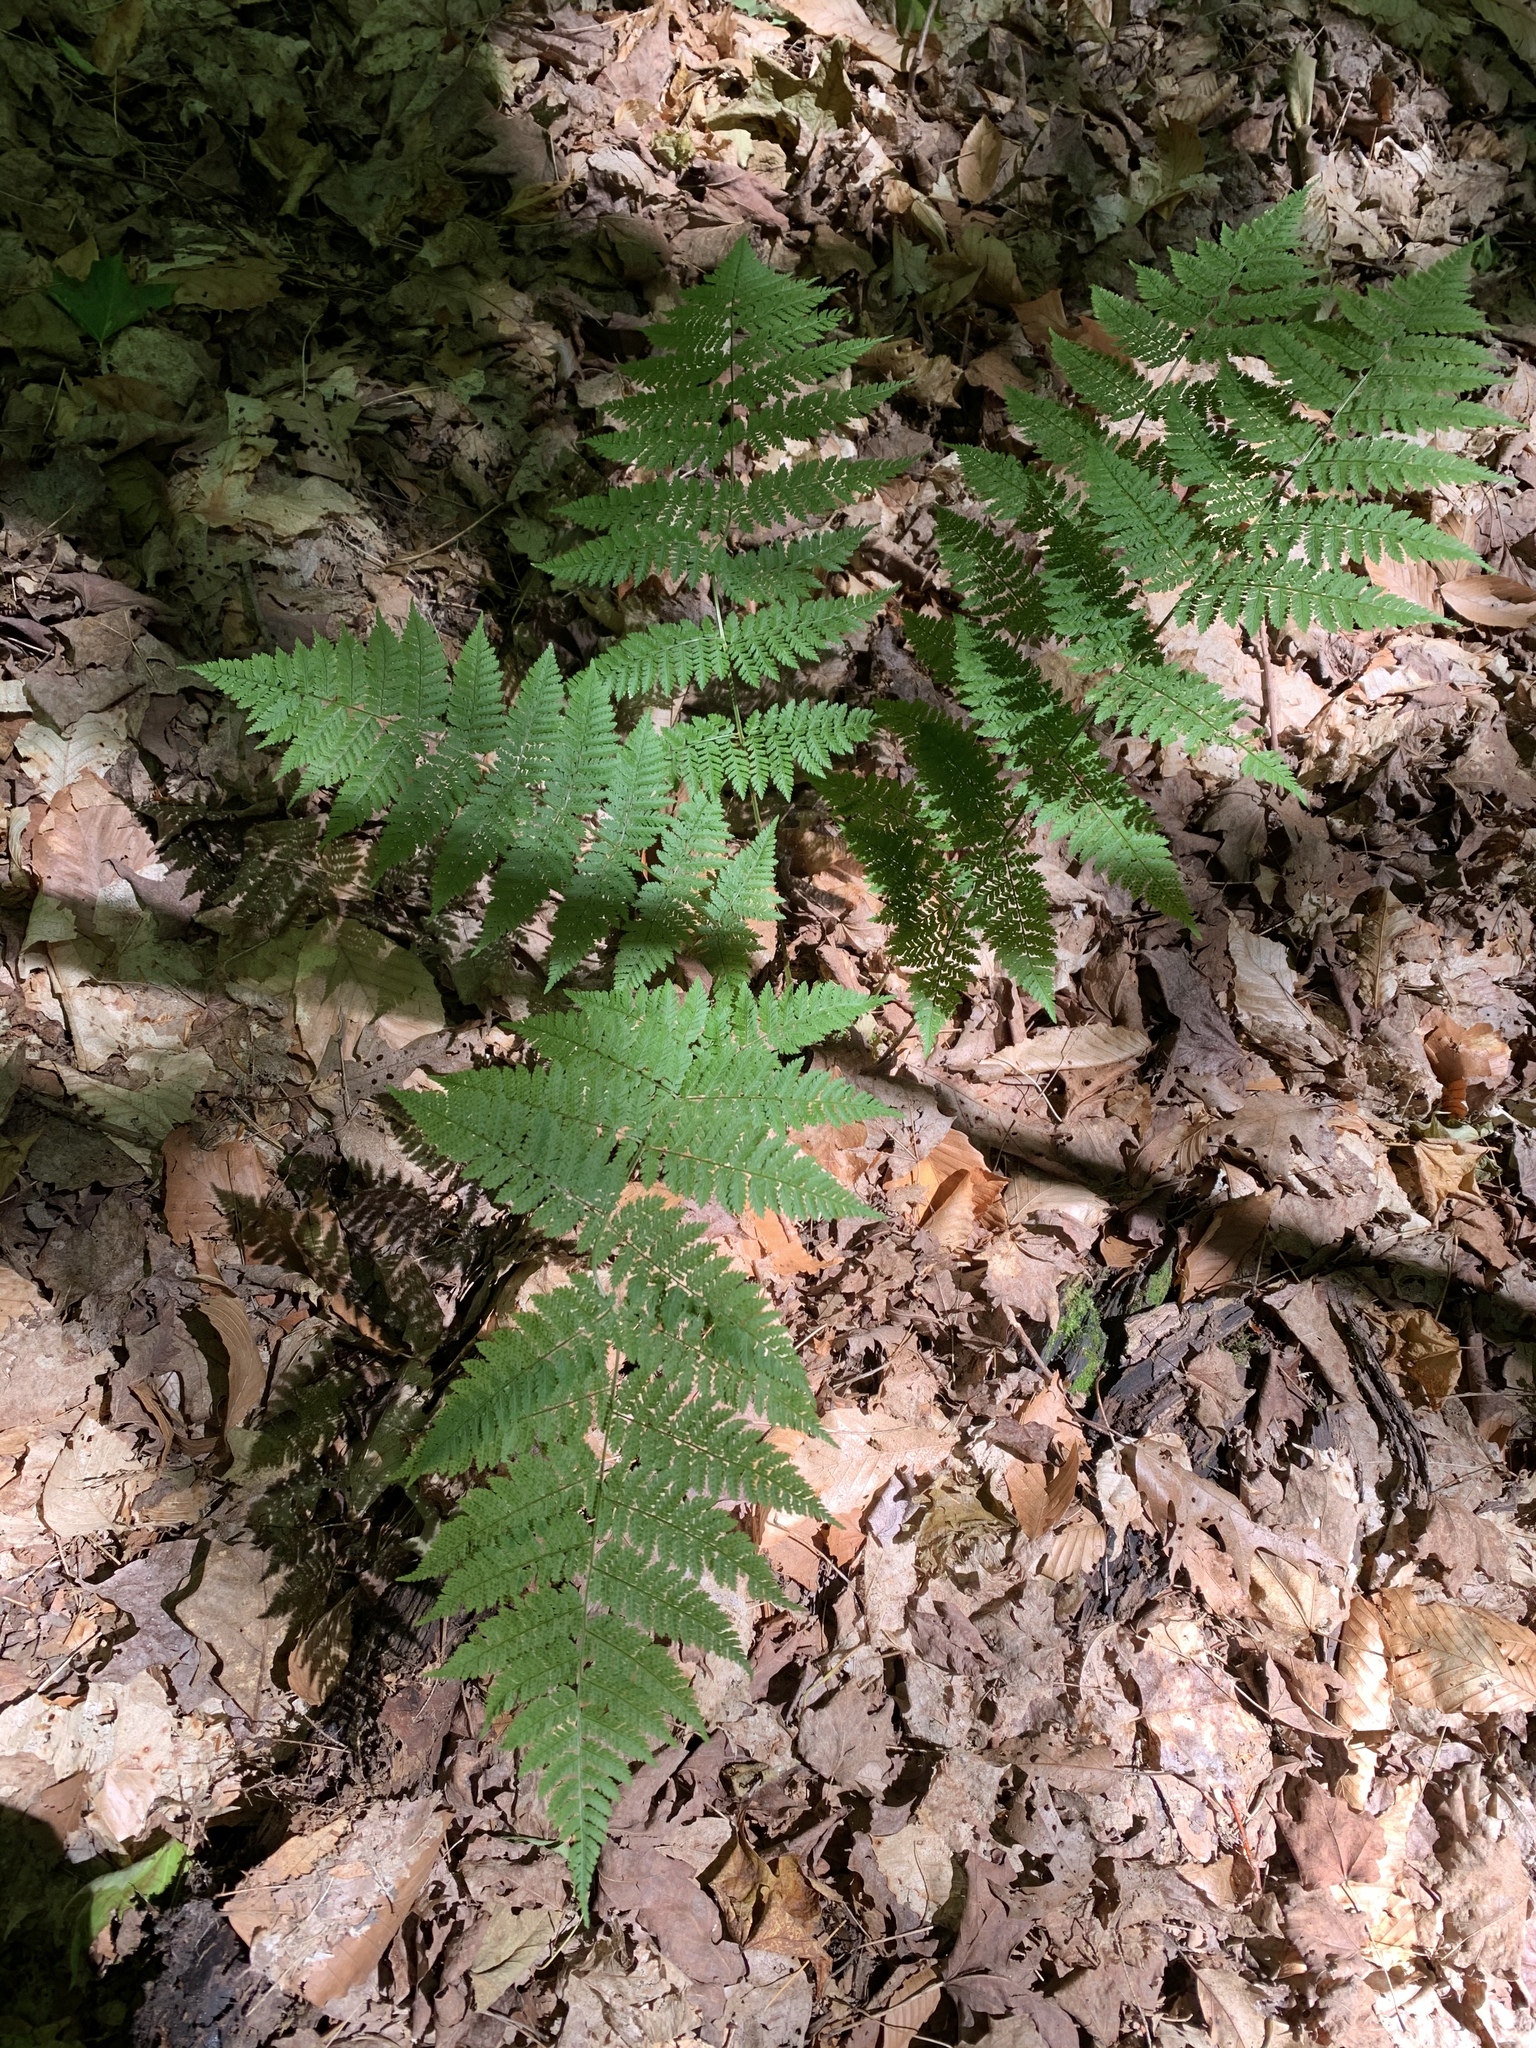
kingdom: Plantae
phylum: Tracheophyta
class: Polypodiopsida
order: Polypodiales
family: Dryopteridaceae
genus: Dryopteris
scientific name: Dryopteris intermedia
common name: Evergreen wood fern
